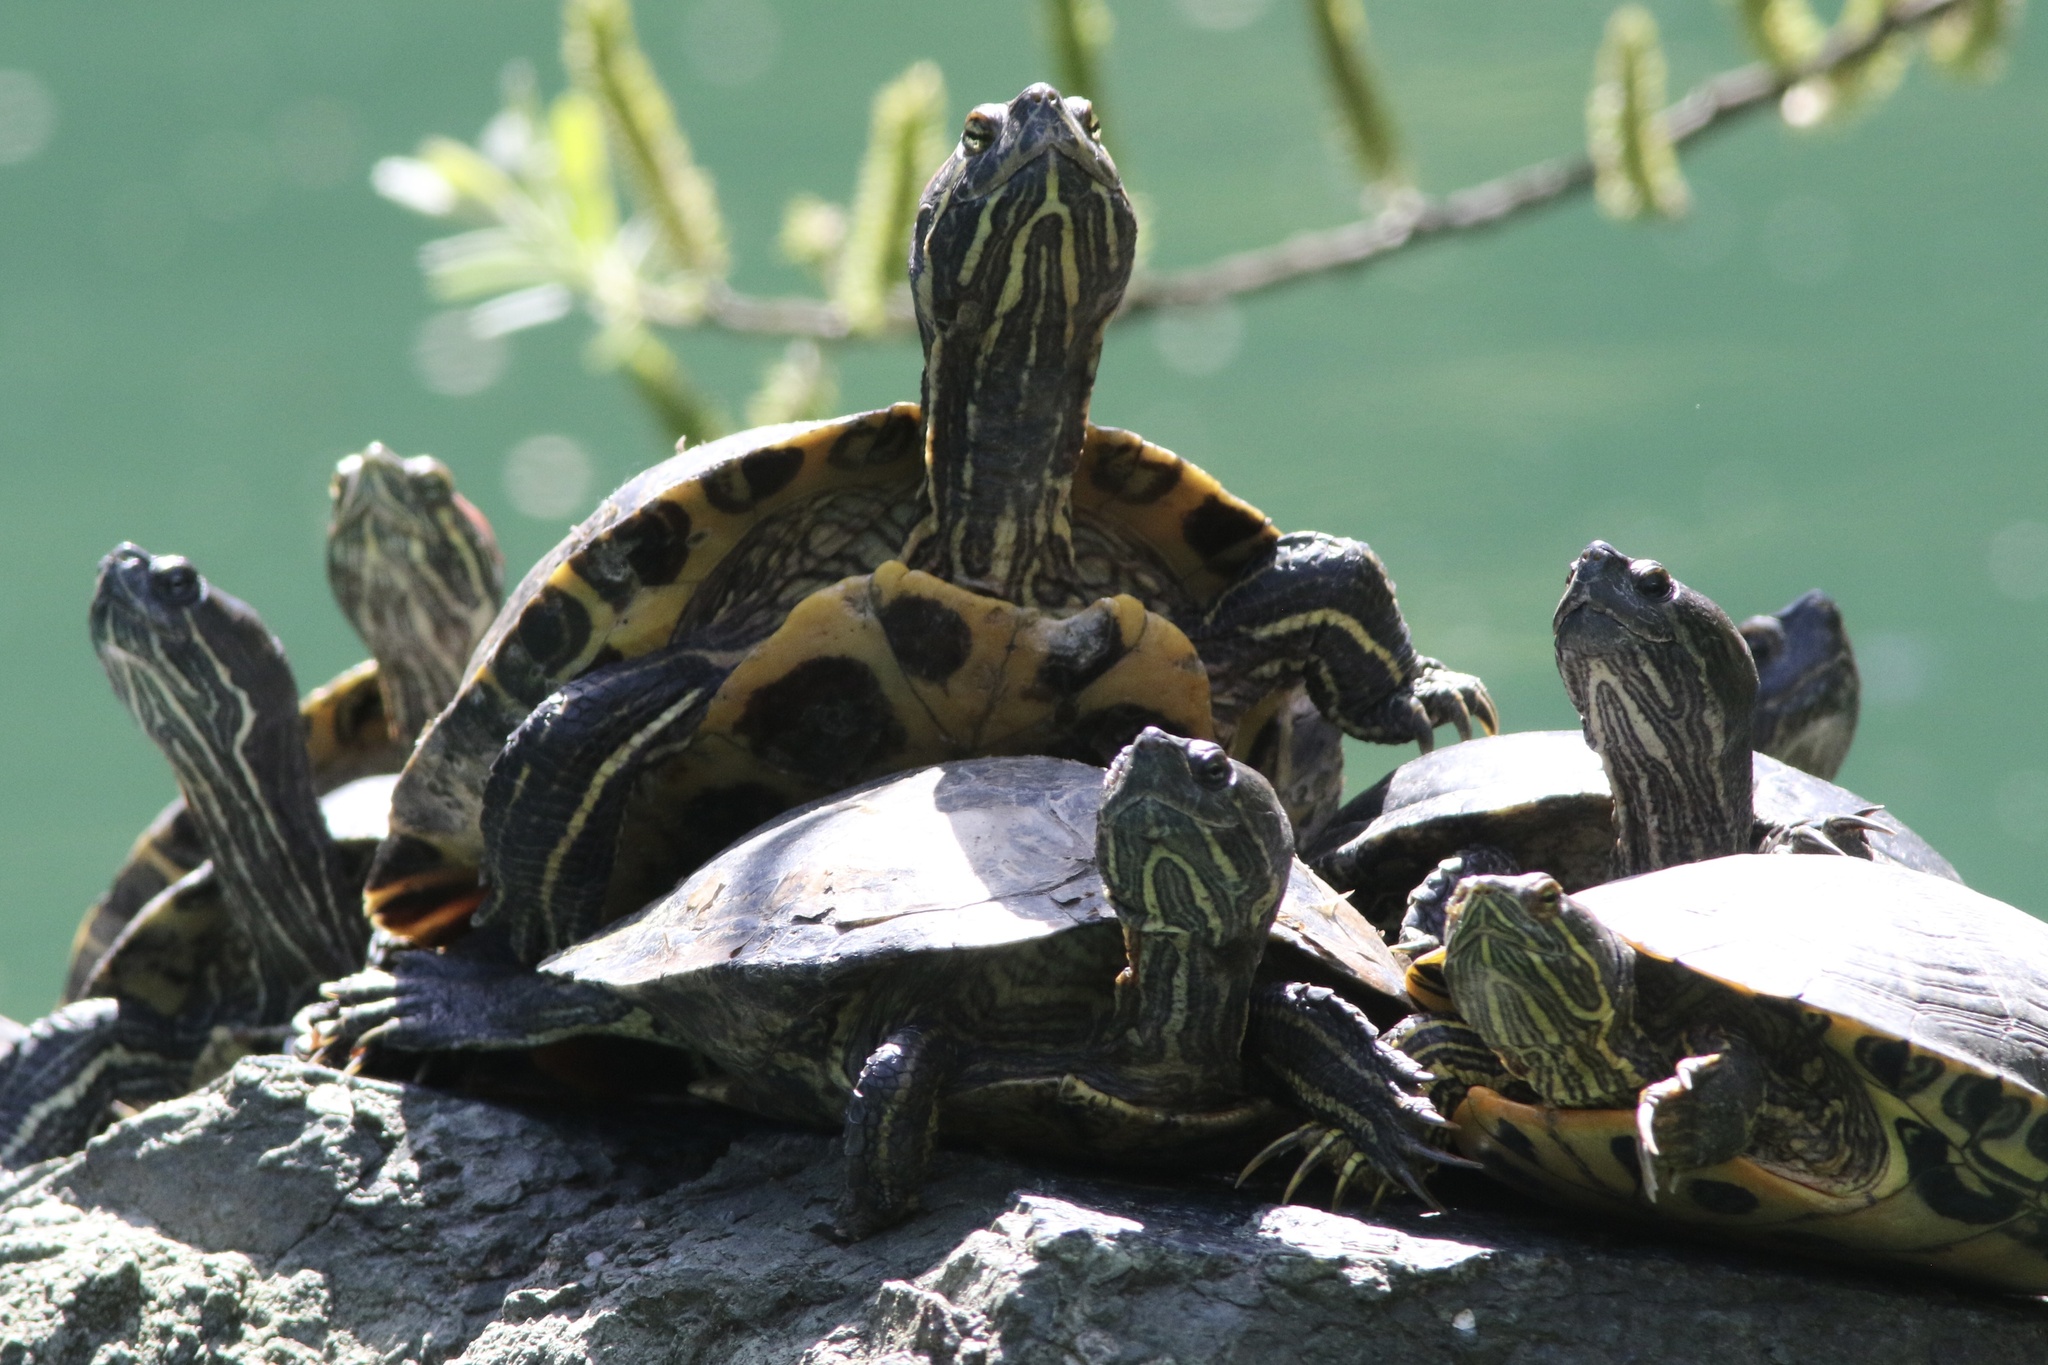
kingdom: Animalia
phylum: Chordata
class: Testudines
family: Emydidae
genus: Trachemys
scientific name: Trachemys scripta
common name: Slider
